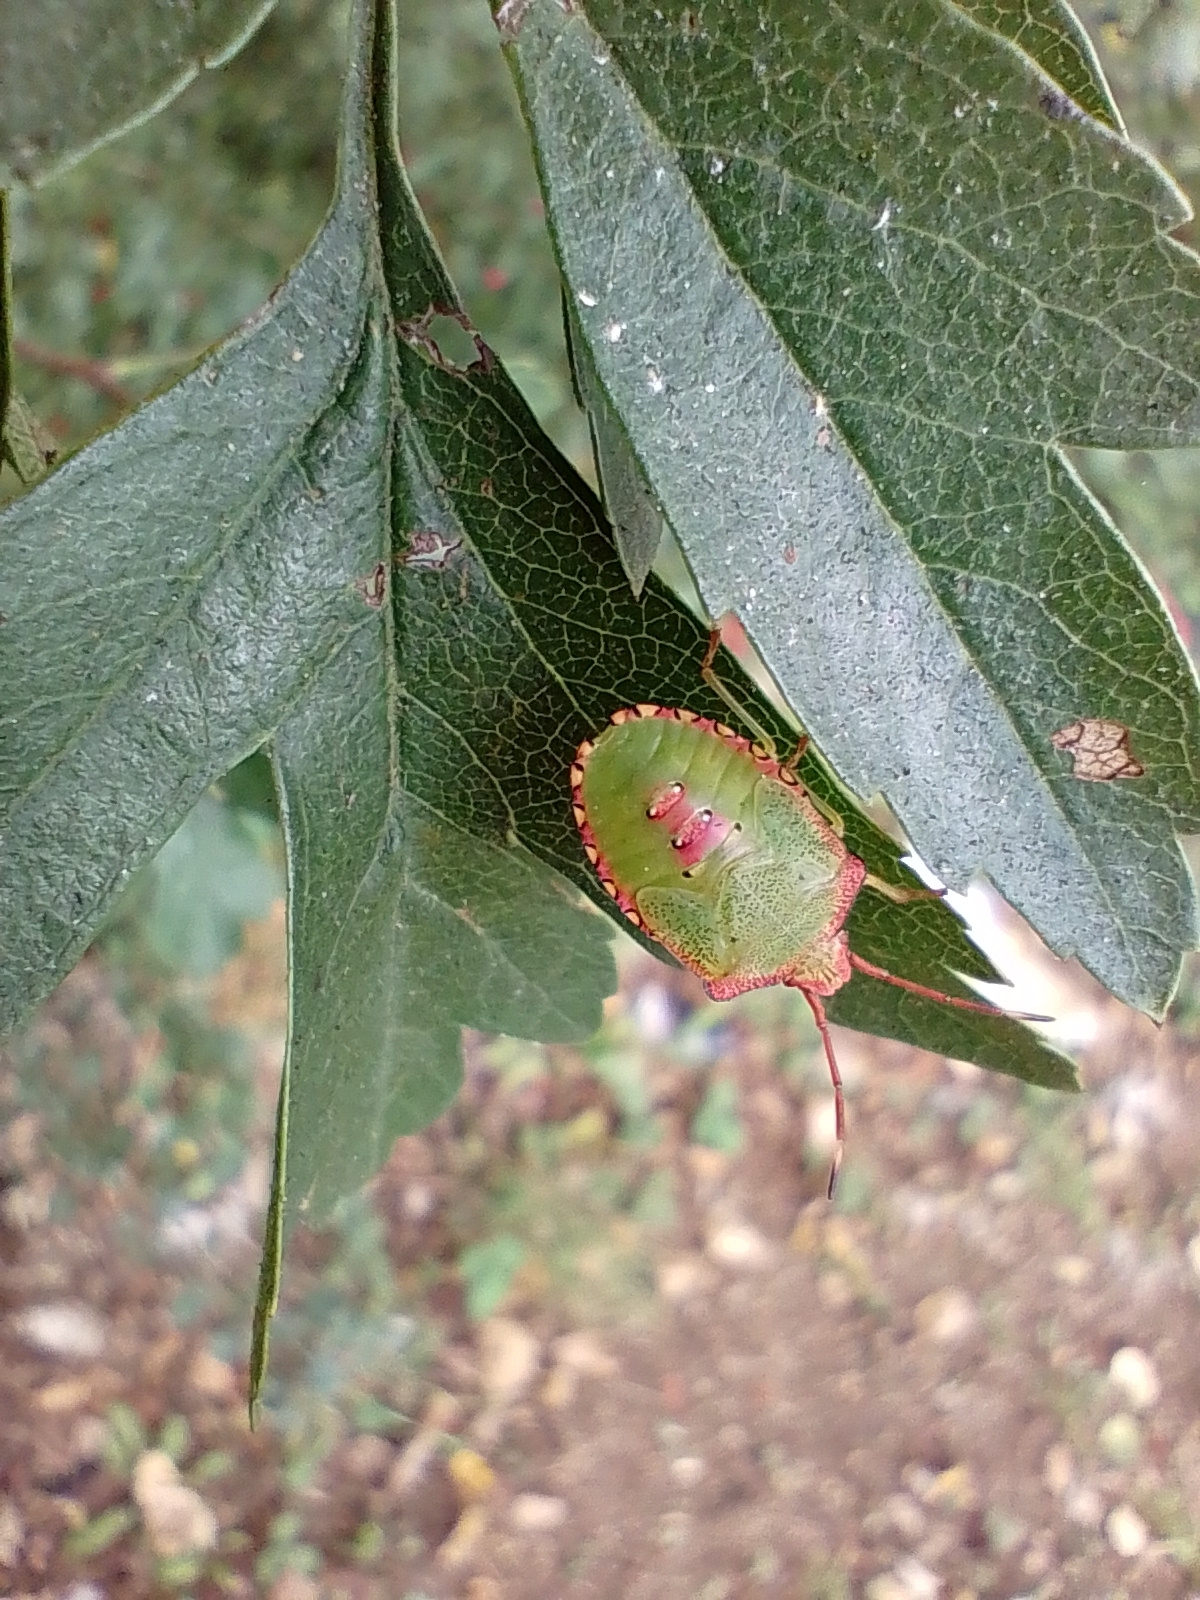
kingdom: Animalia
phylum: Arthropoda
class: Insecta
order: Hemiptera
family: Acanthosomatidae
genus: Acanthosoma
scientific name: Acanthosoma haemorrhoidale
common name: Hawthorn shieldbug
